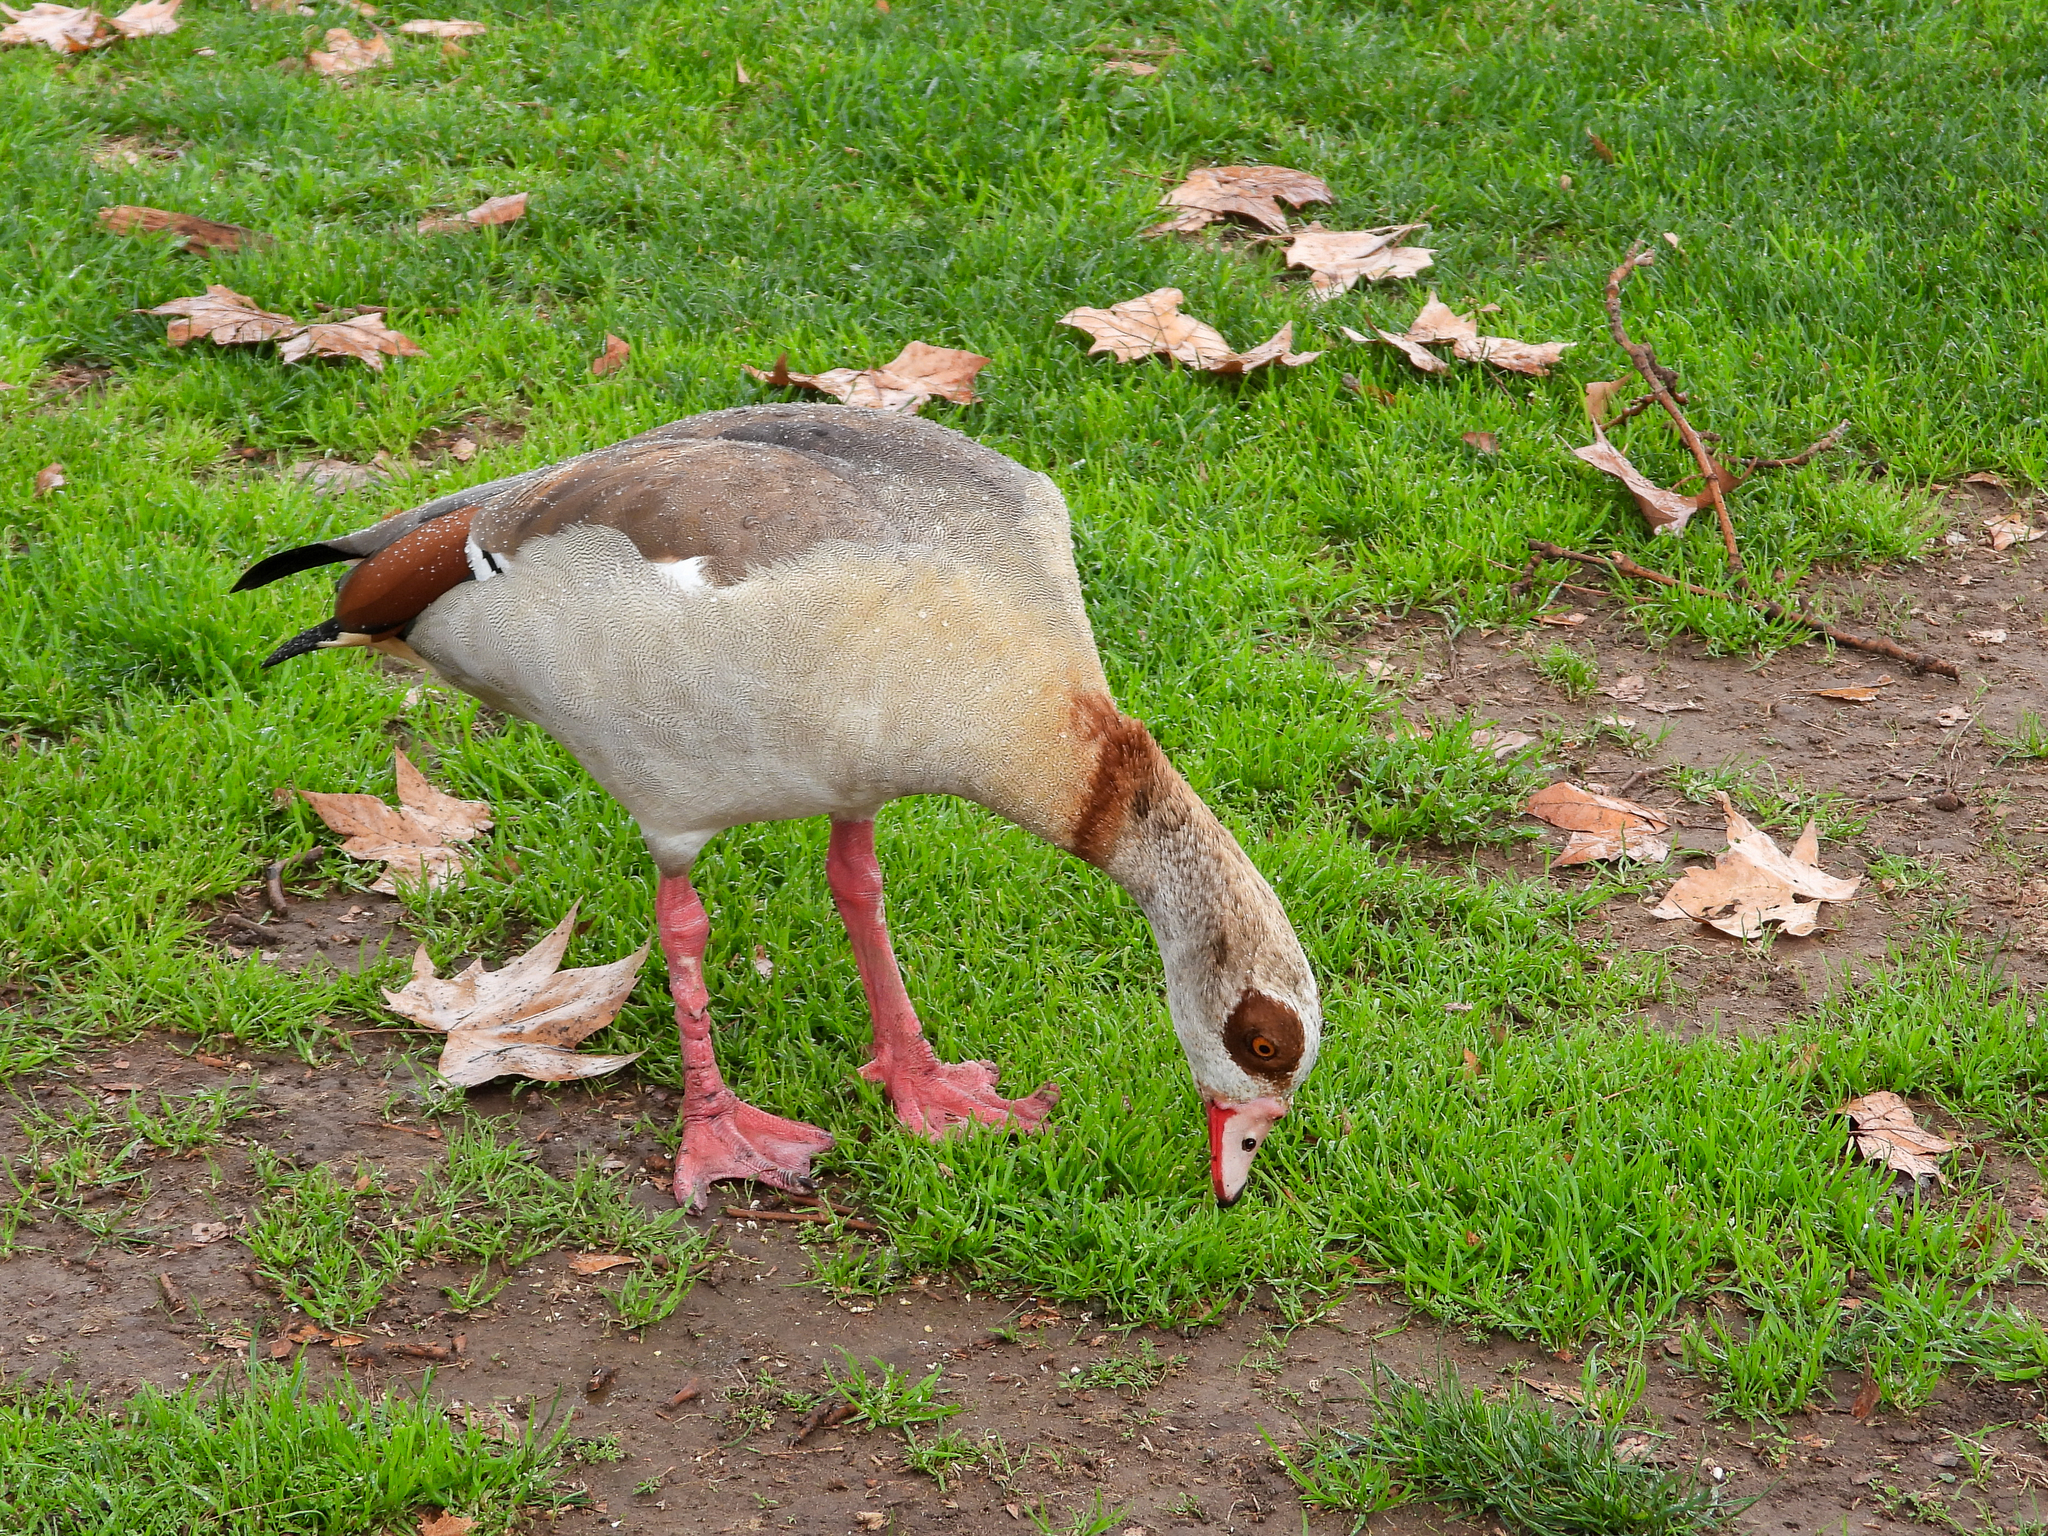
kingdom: Animalia
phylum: Chordata
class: Aves
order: Anseriformes
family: Anatidae
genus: Alopochen
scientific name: Alopochen aegyptiaca
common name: Egyptian goose
